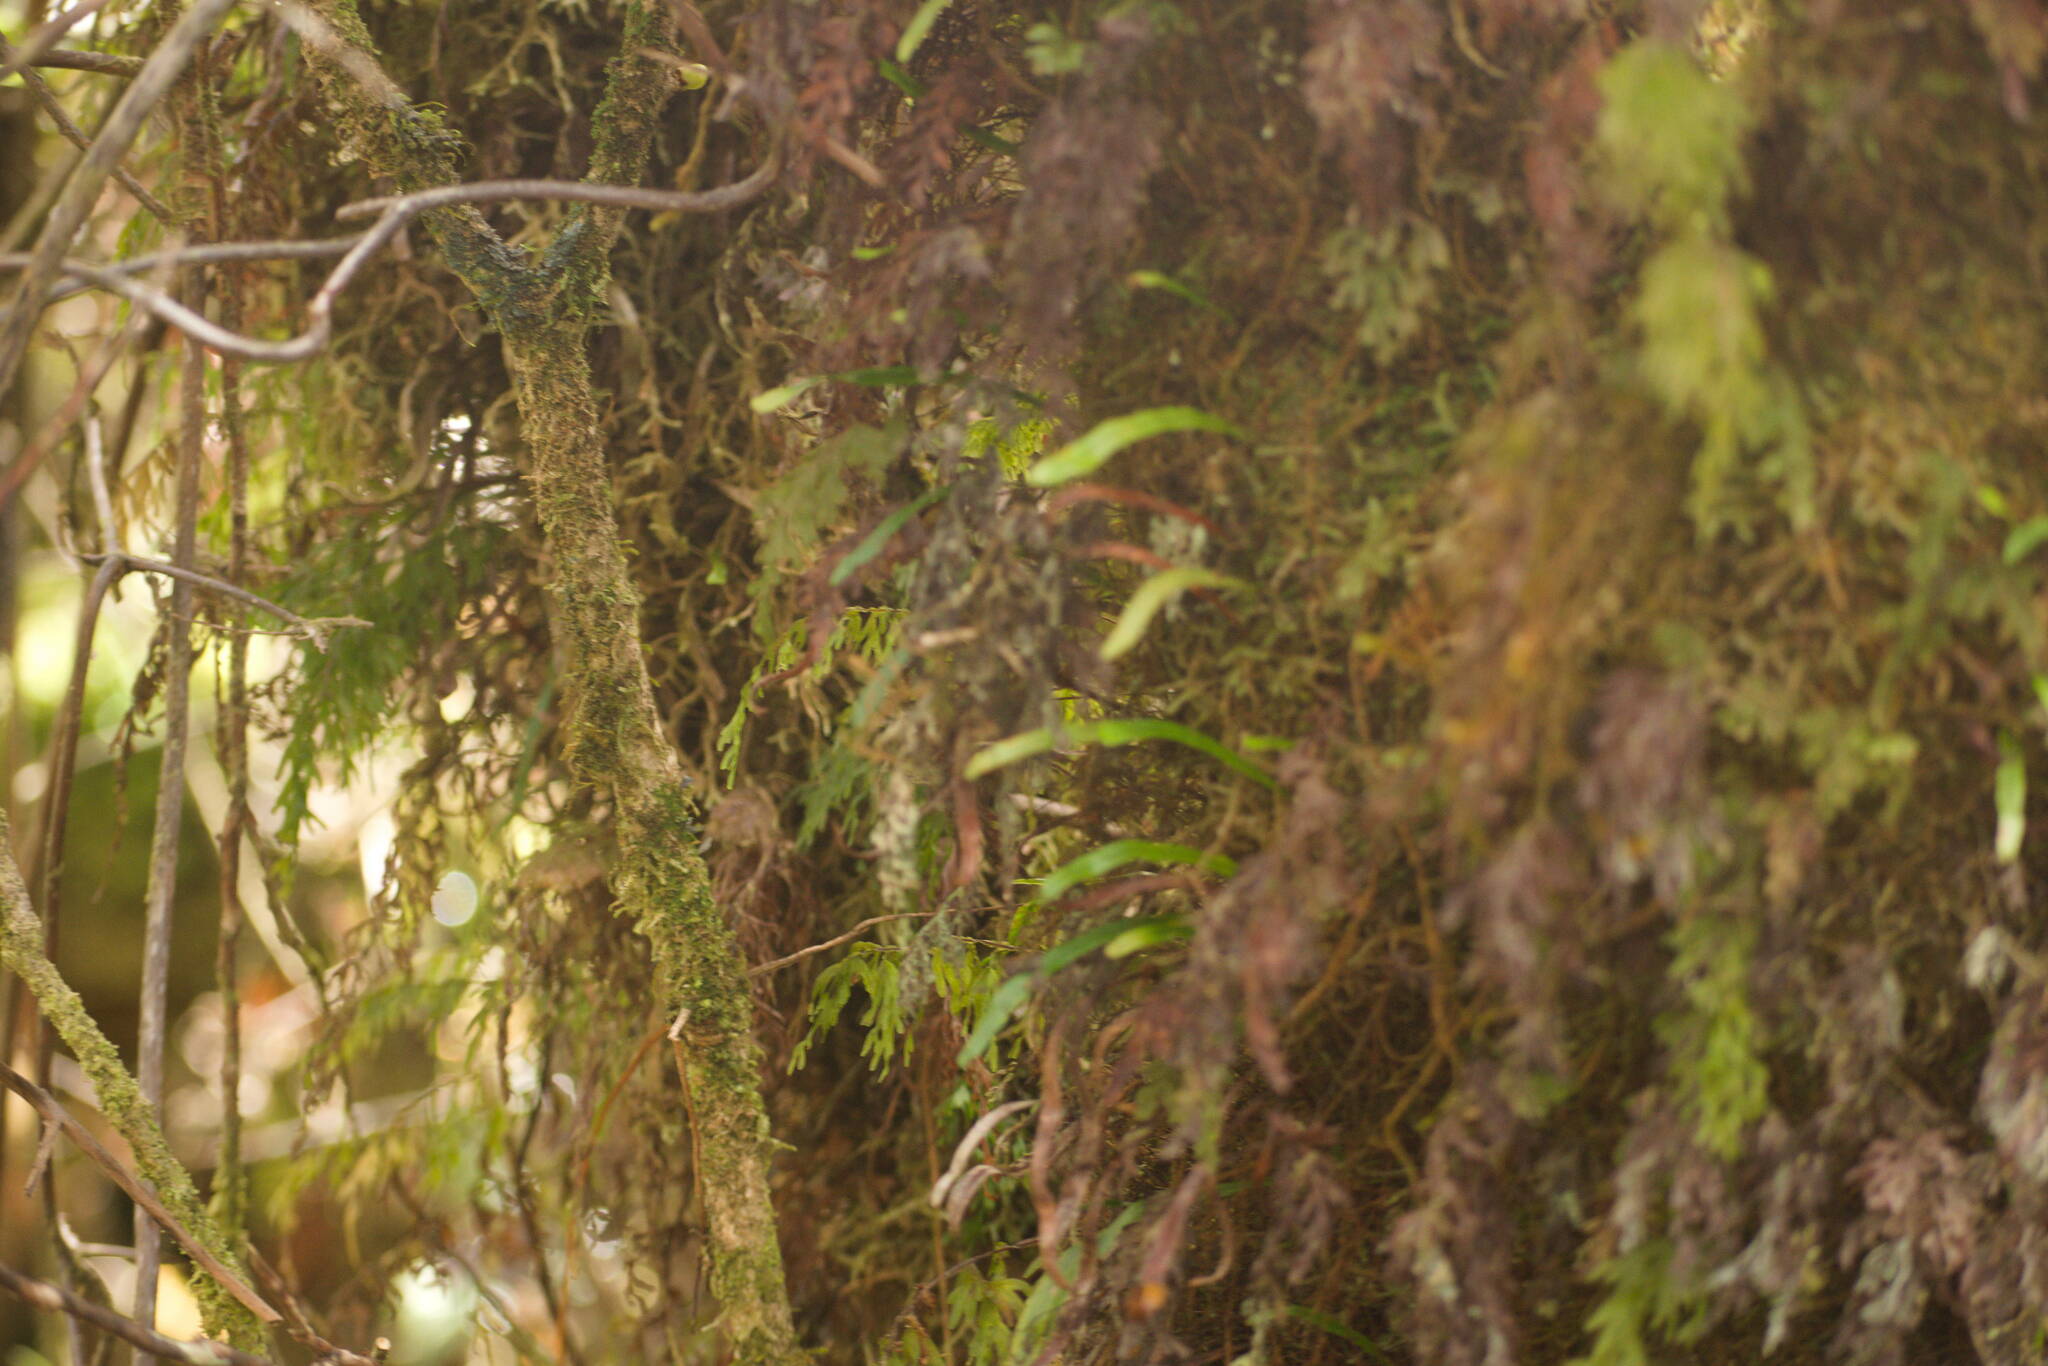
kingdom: Plantae
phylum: Tracheophyta
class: Polypodiopsida
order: Polypodiales
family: Polypodiaceae
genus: Adenophorus
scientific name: Adenophorus tenellus
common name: Kolokolo
